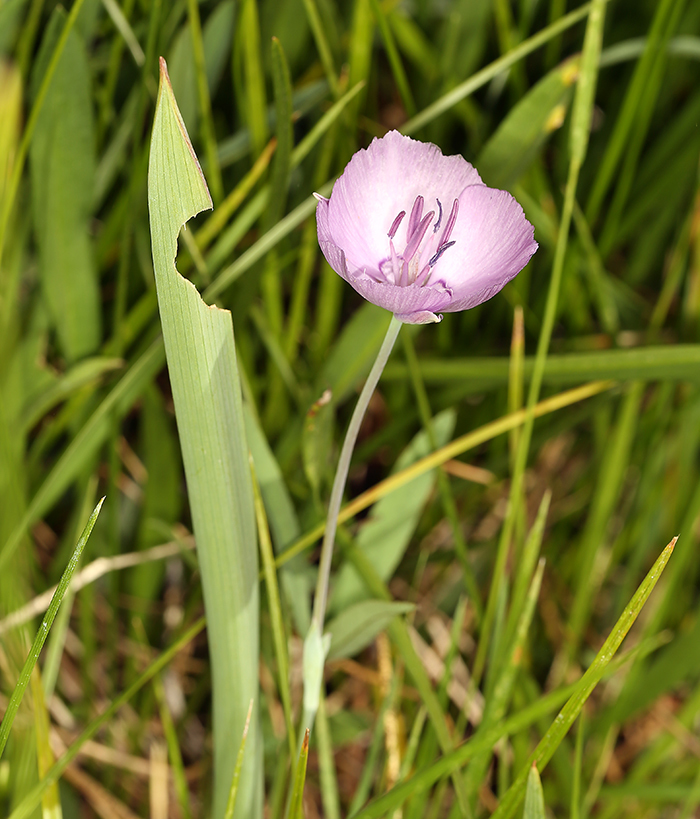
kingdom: Plantae
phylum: Tracheophyta
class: Liliopsida
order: Liliales
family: Liliaceae
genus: Calochortus
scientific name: Calochortus nudus
